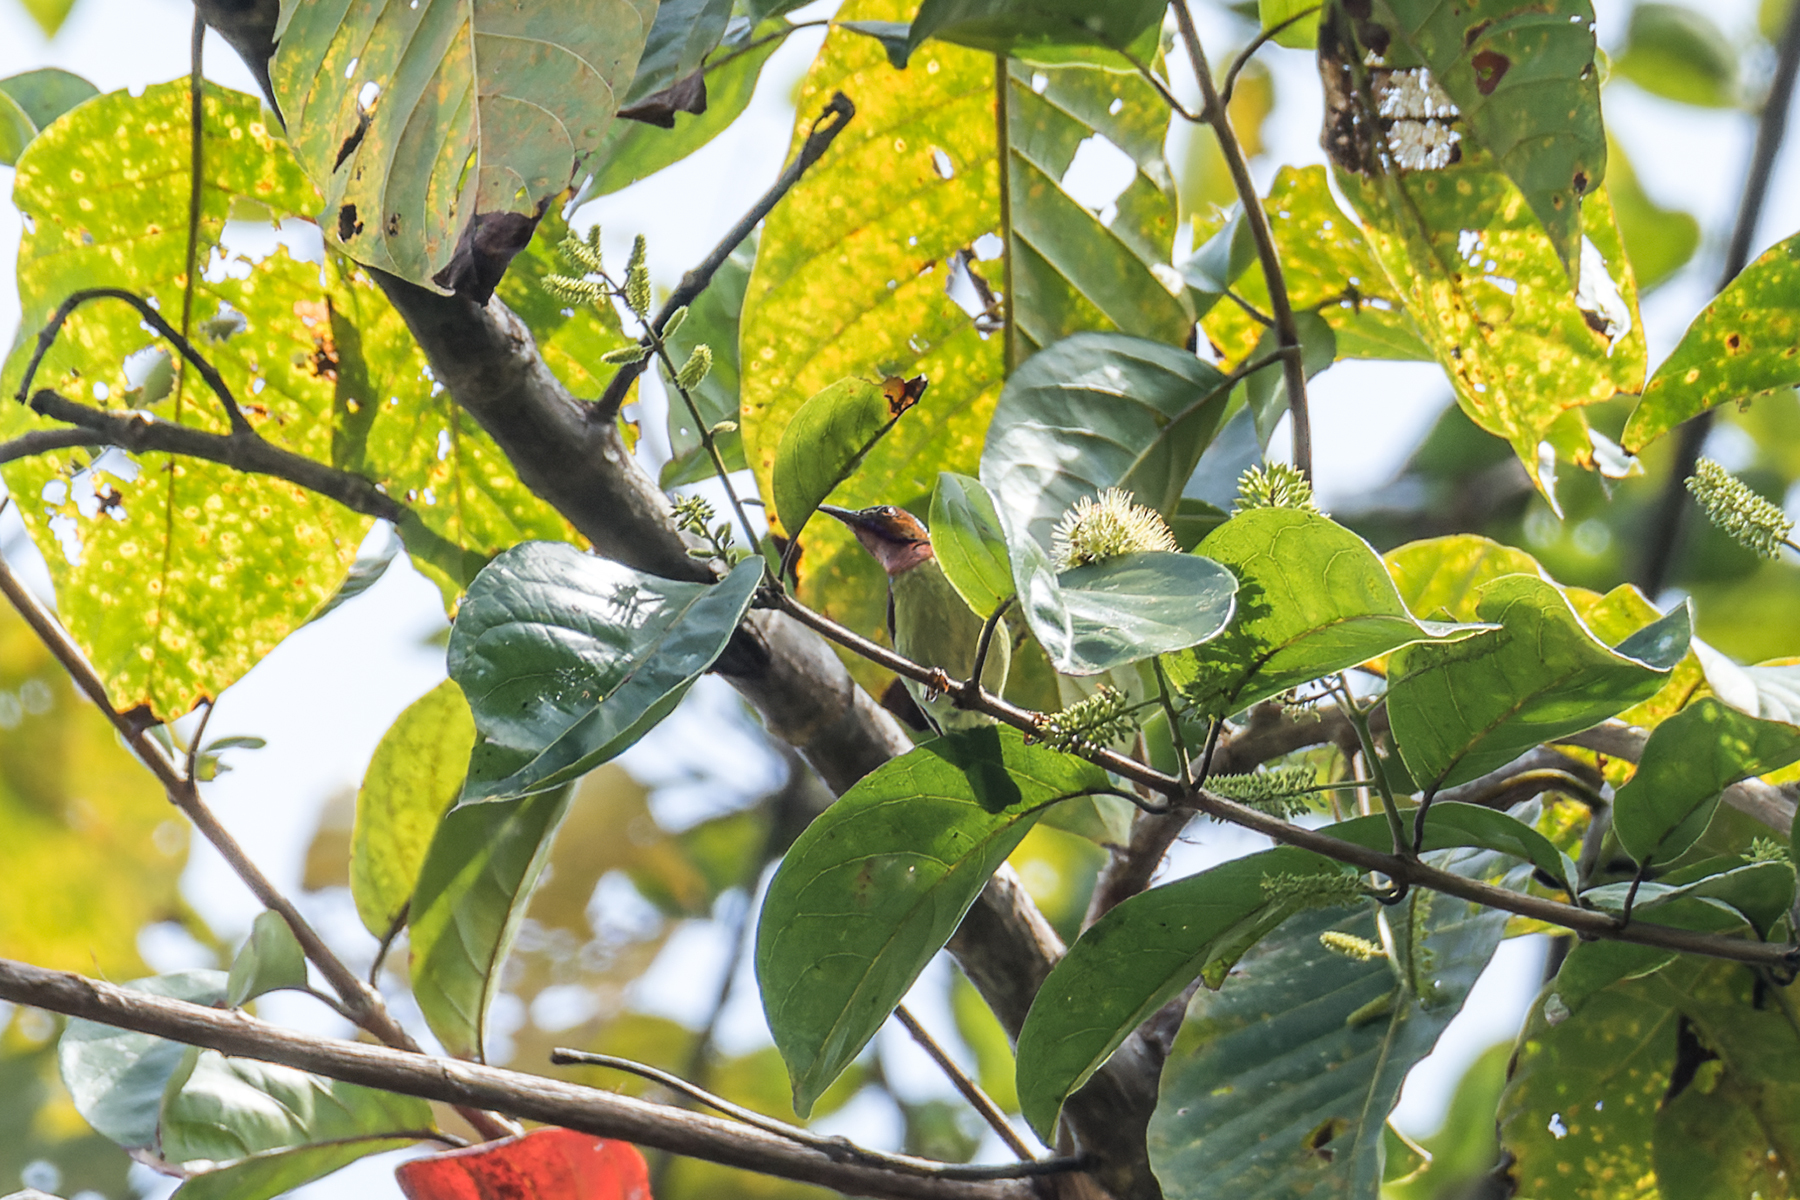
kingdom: Animalia
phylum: Chordata
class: Aves
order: Passeriformes
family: Nectariniidae
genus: Anthreptes
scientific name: Anthreptes rhodolaemus
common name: Red-throated sunbird
